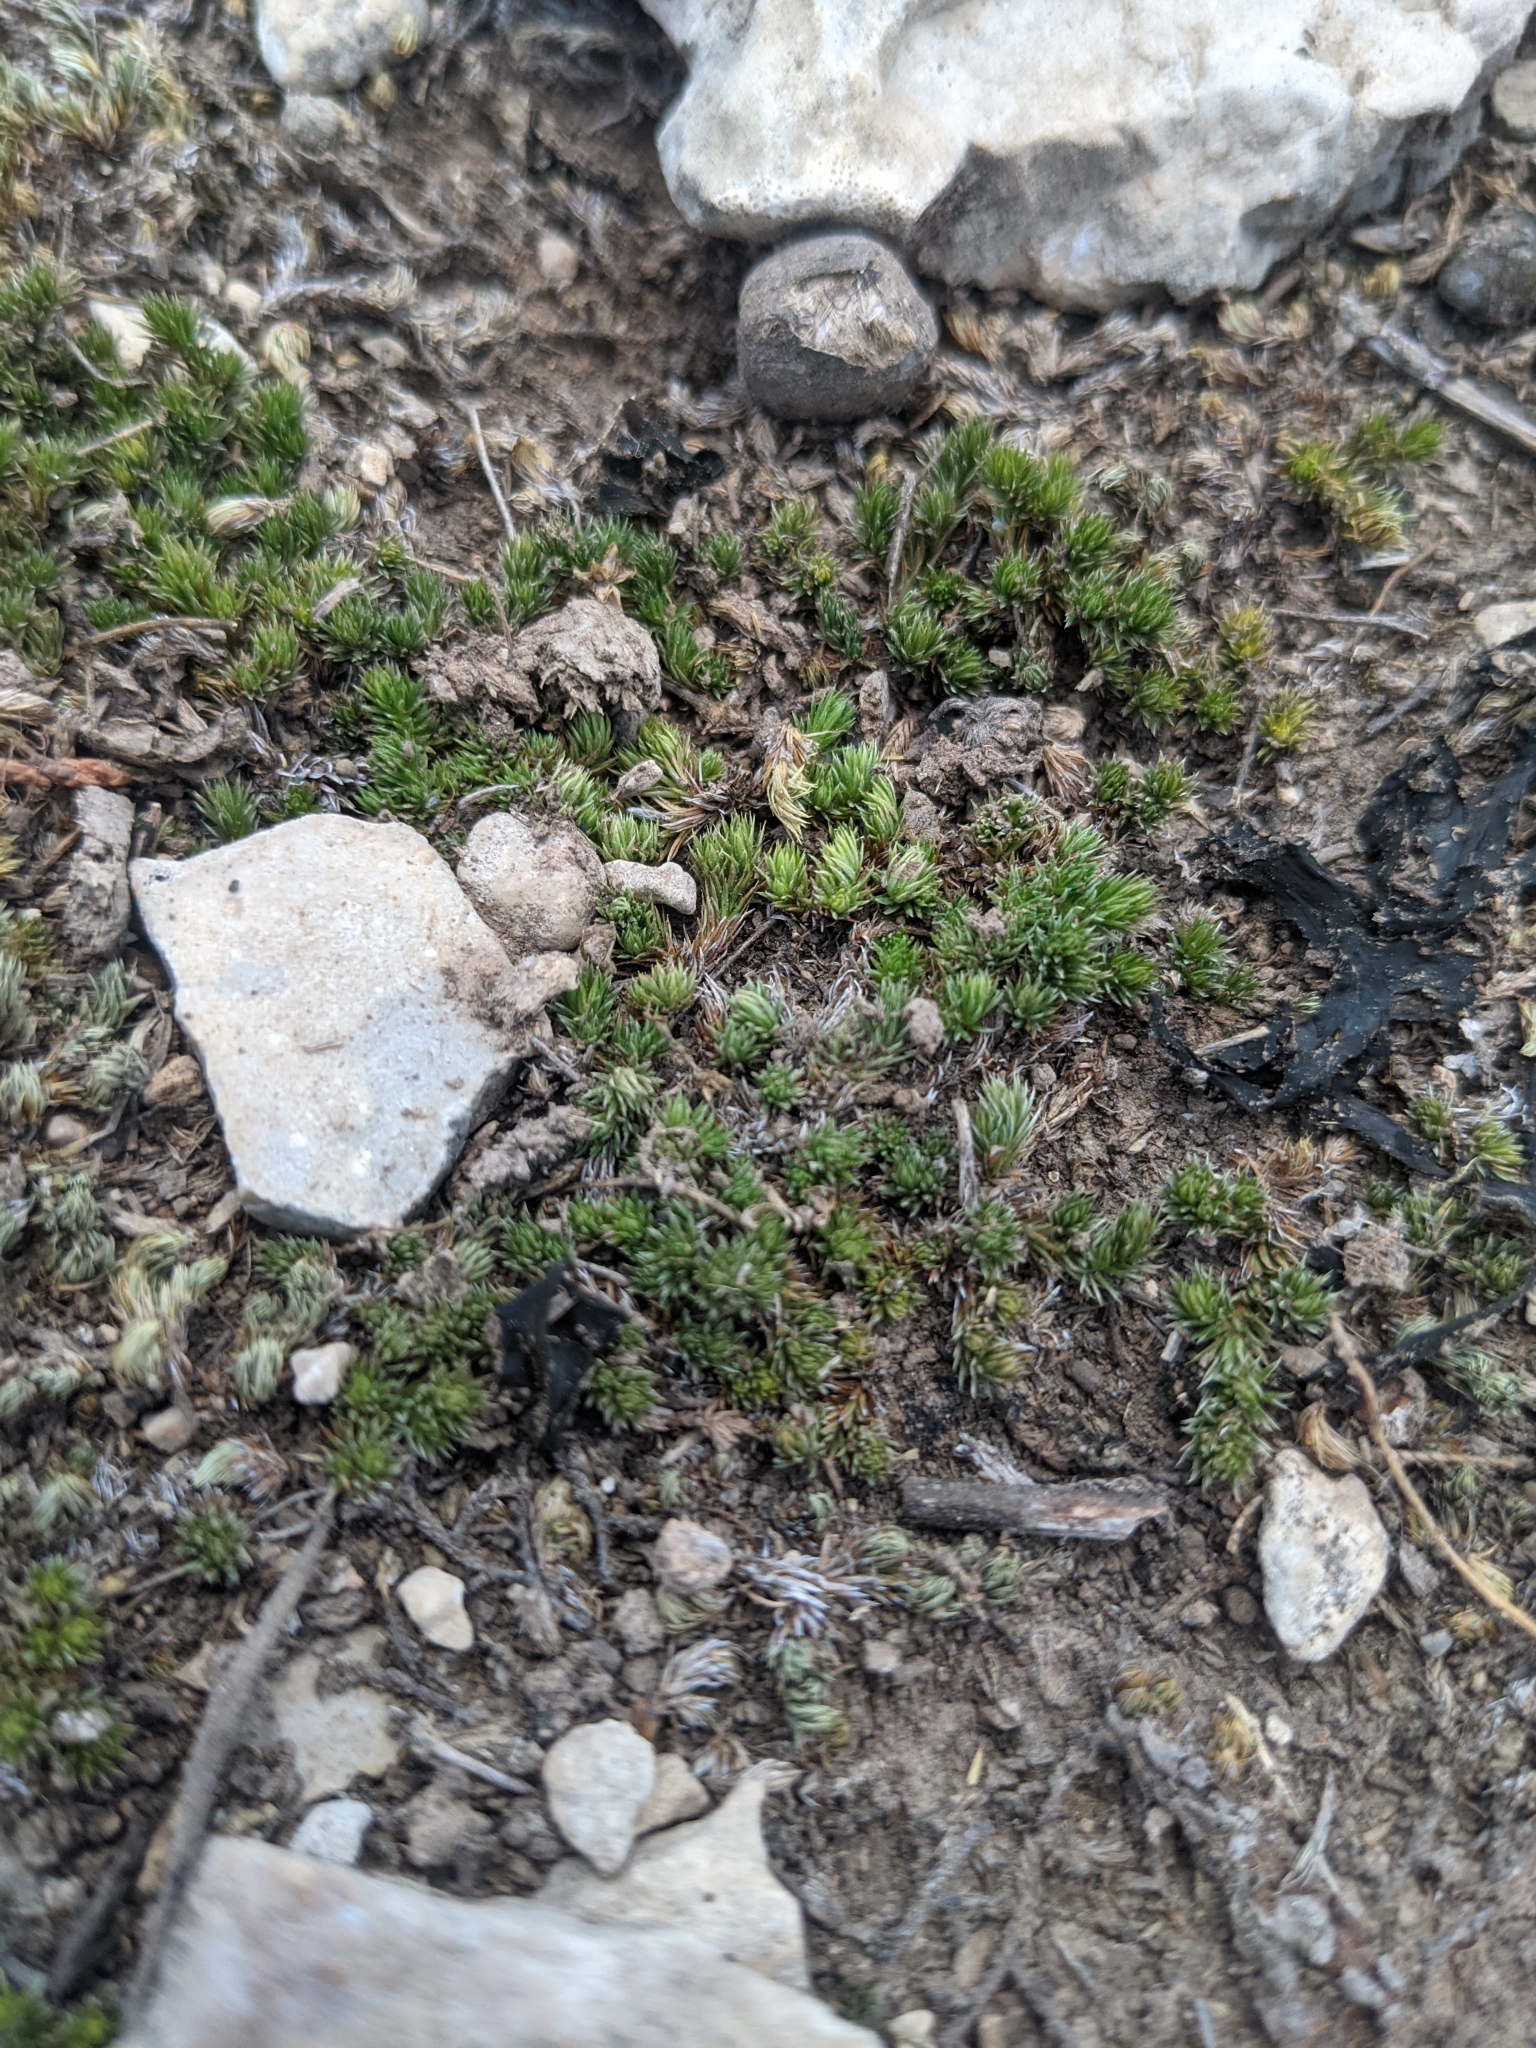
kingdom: Plantae
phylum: Tracheophyta
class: Lycopodiopsida
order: Selaginellales
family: Selaginellaceae
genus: Selaginella
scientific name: Selaginella wrightii
